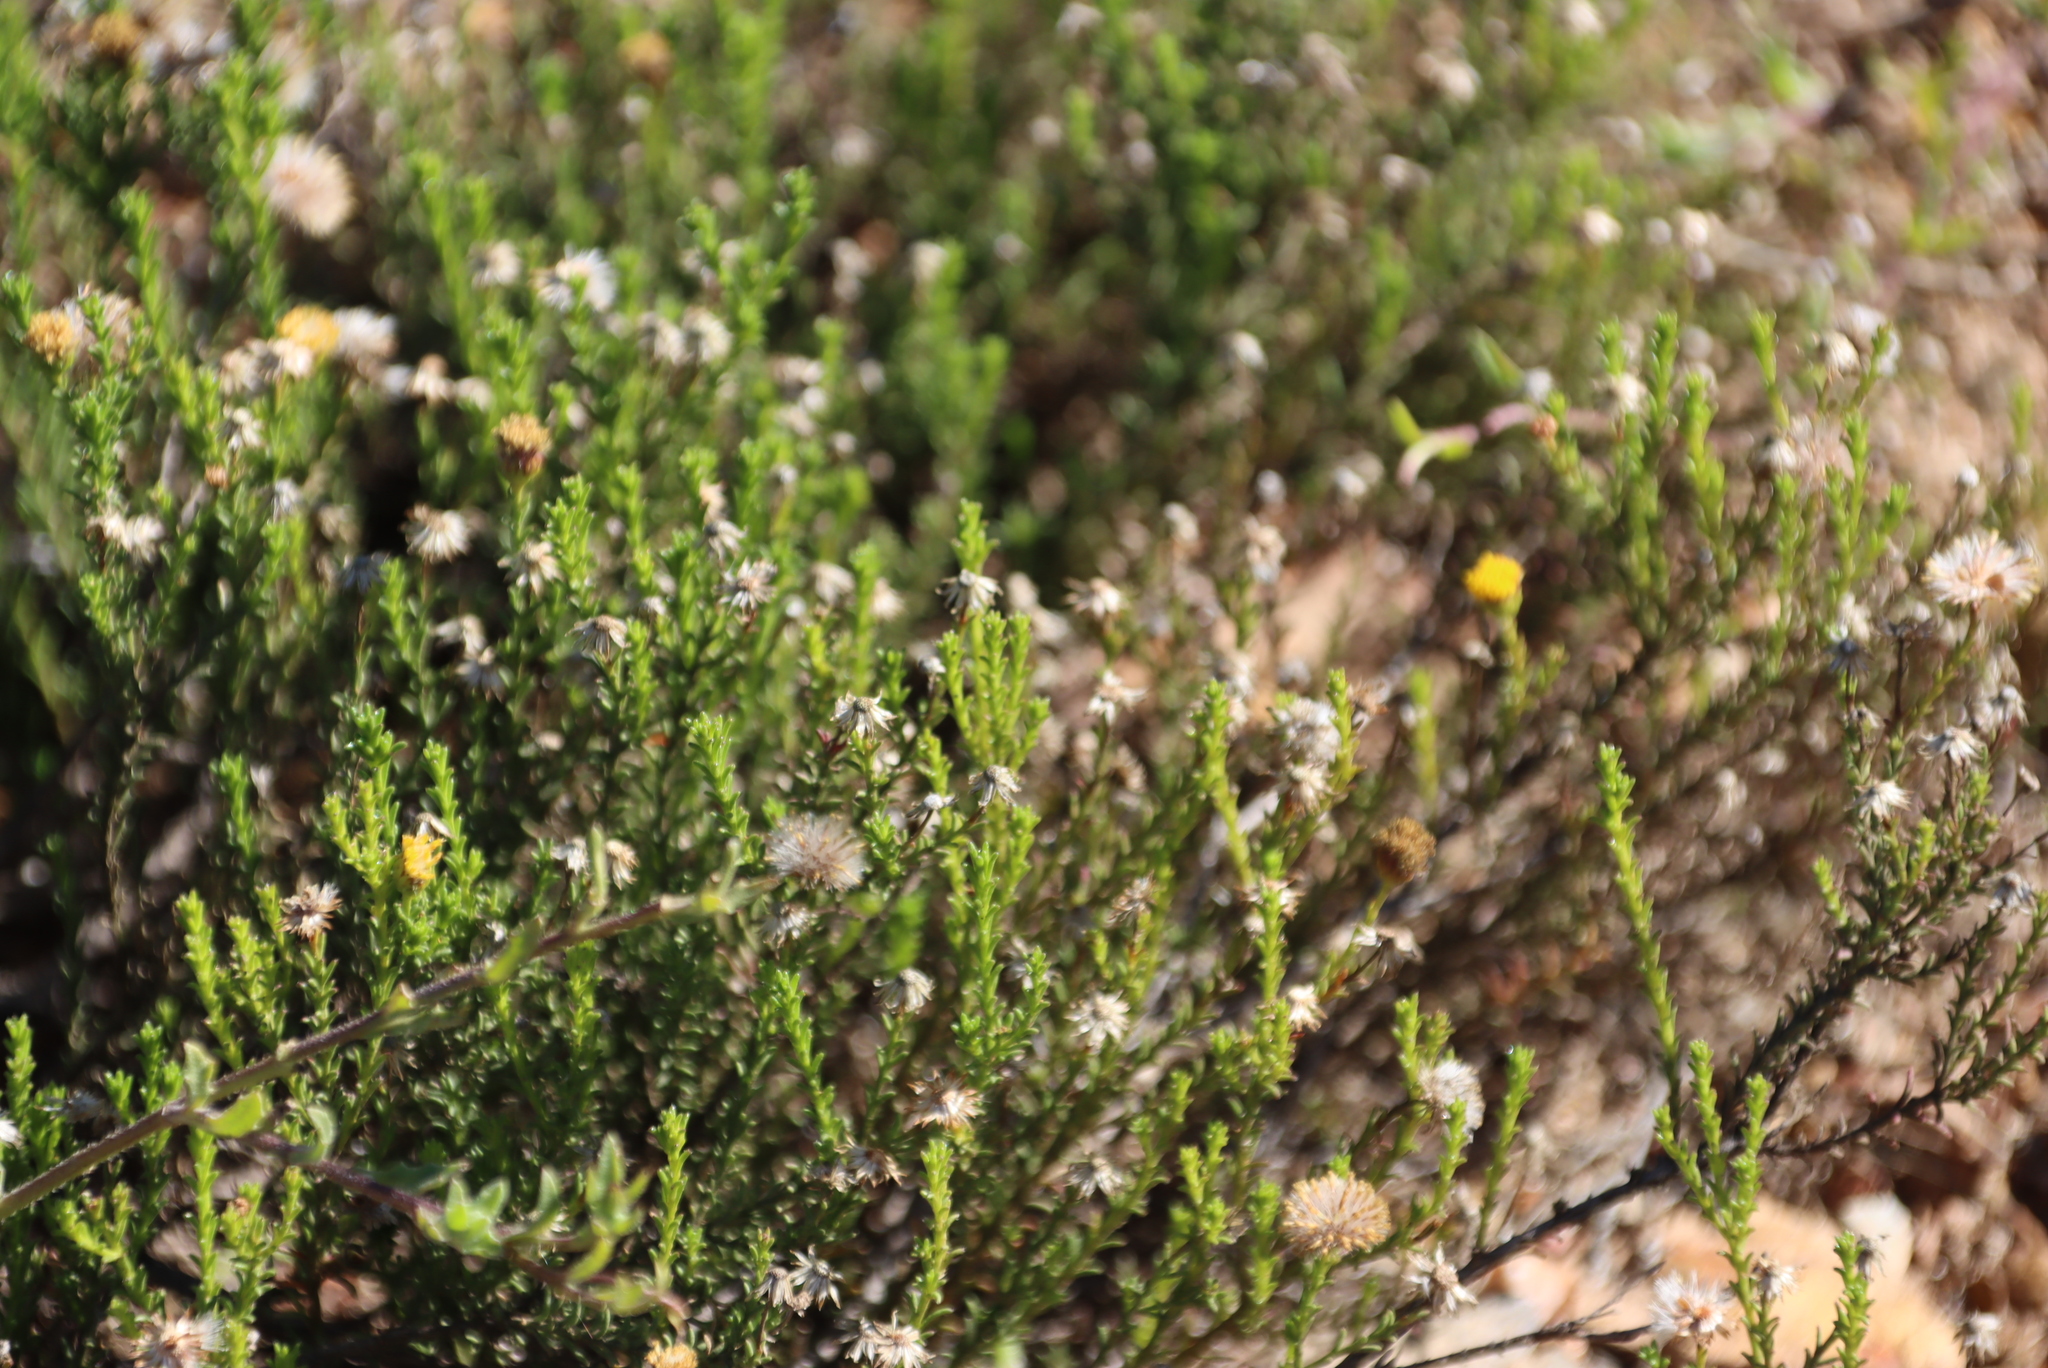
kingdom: Plantae
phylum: Tracheophyta
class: Magnoliopsida
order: Asterales
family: Asteraceae
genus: Chrysocoma
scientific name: Chrysocoma ciliata
